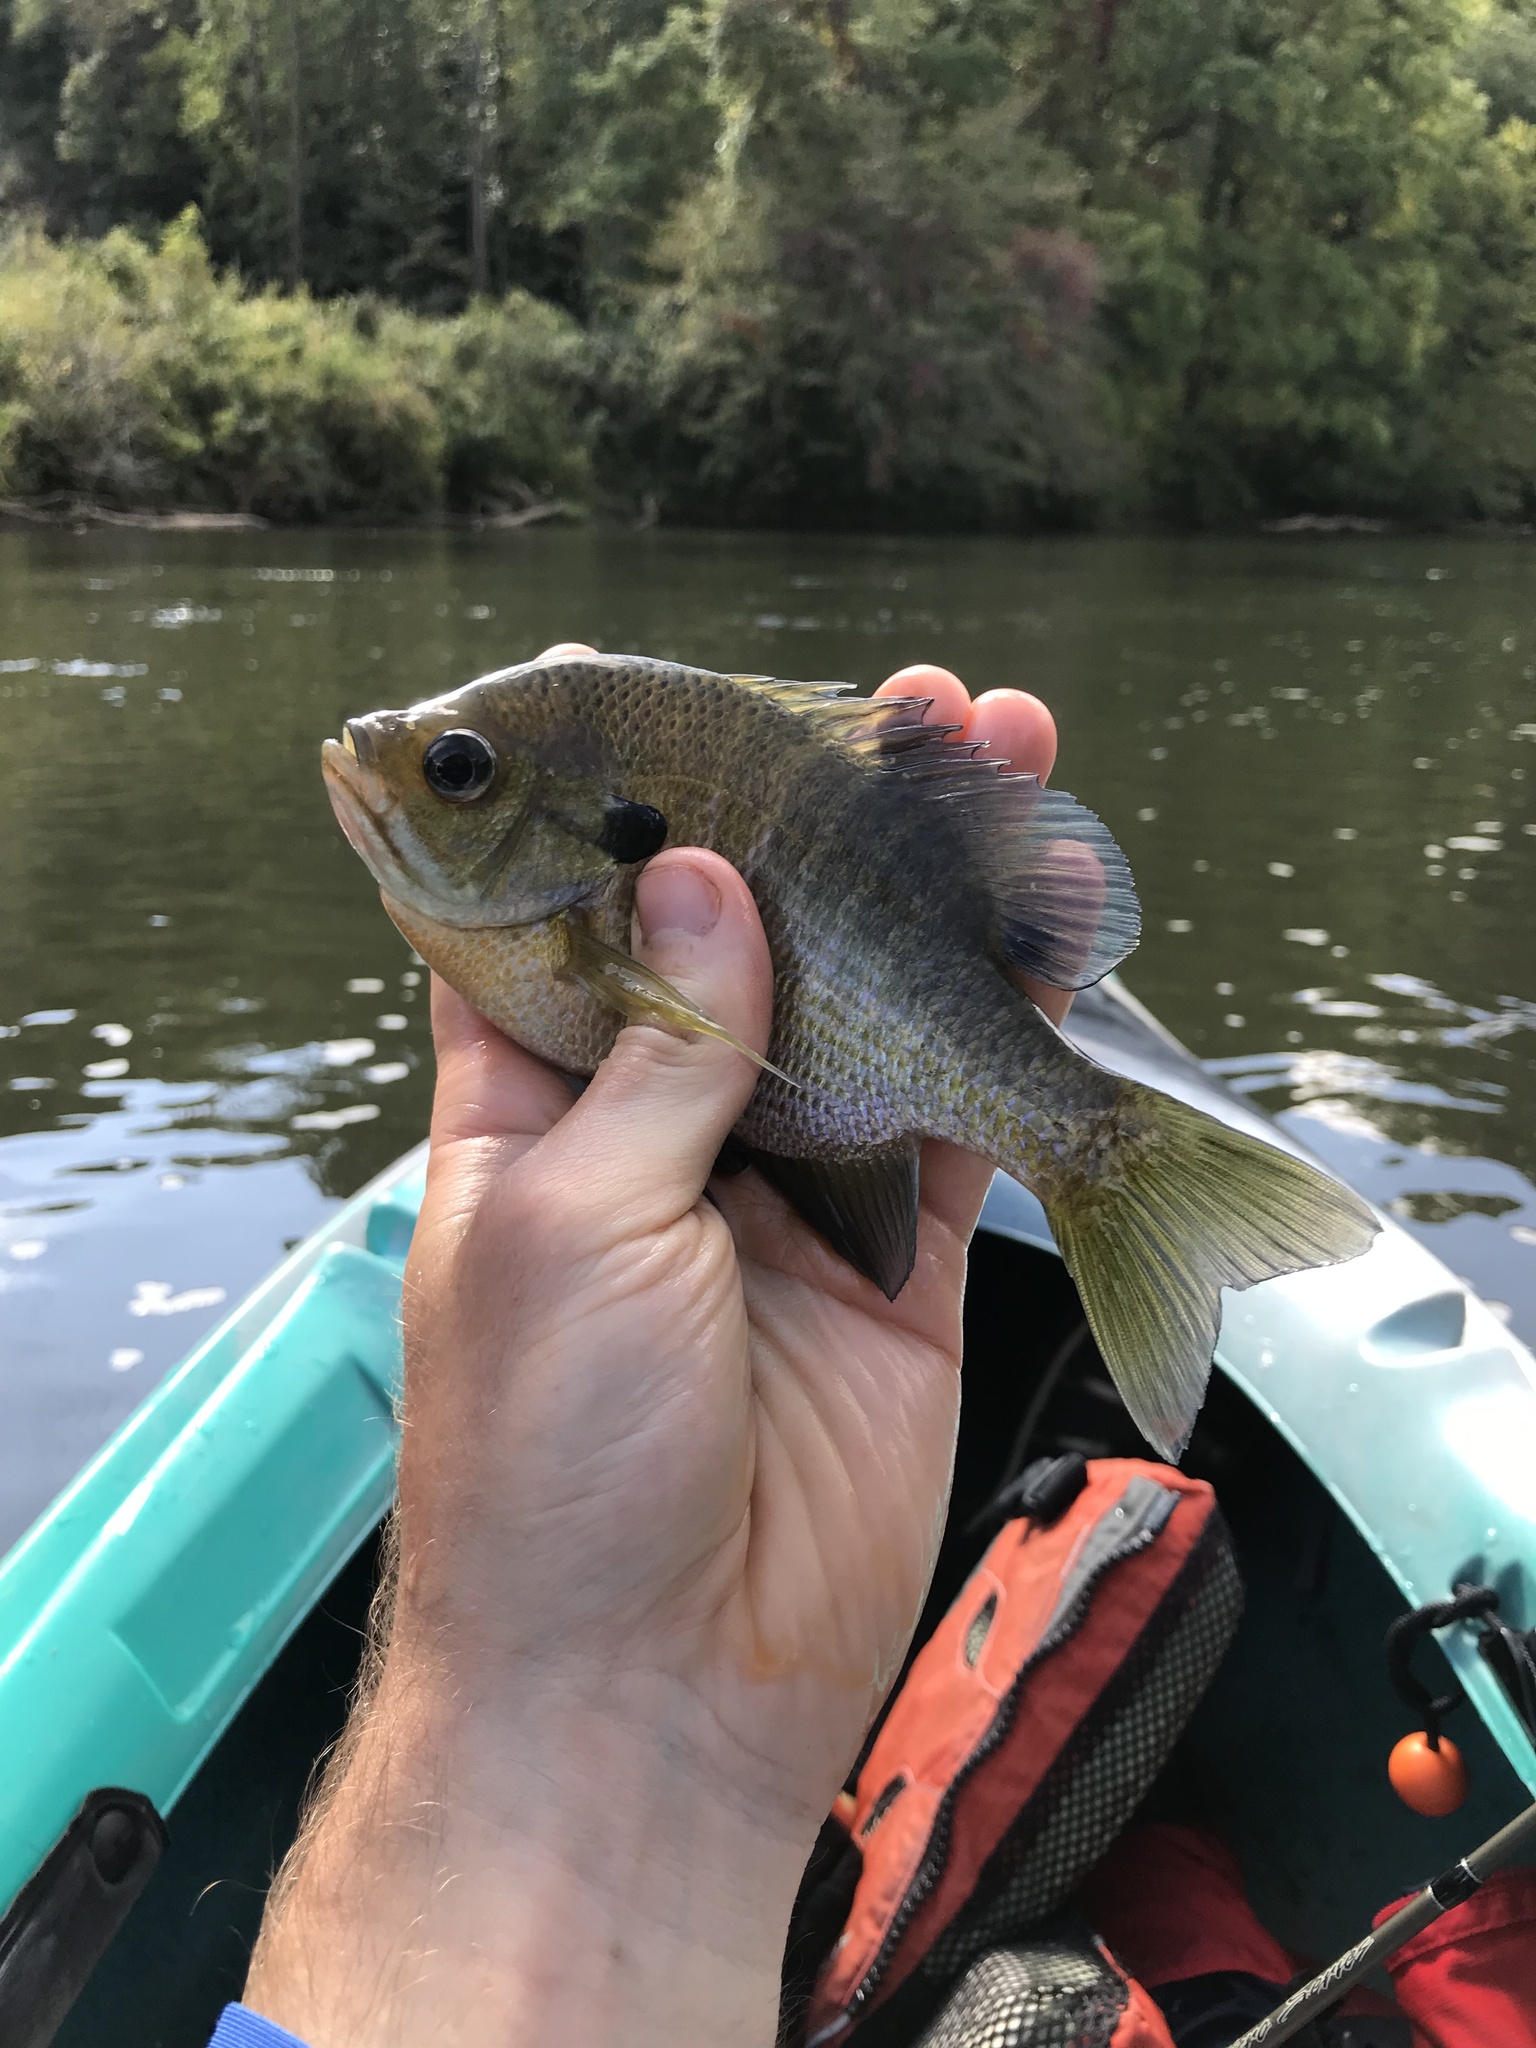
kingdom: Animalia
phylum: Chordata
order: Perciformes
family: Centrarchidae
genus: Lepomis
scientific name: Lepomis macrochirus
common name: Bluegill
